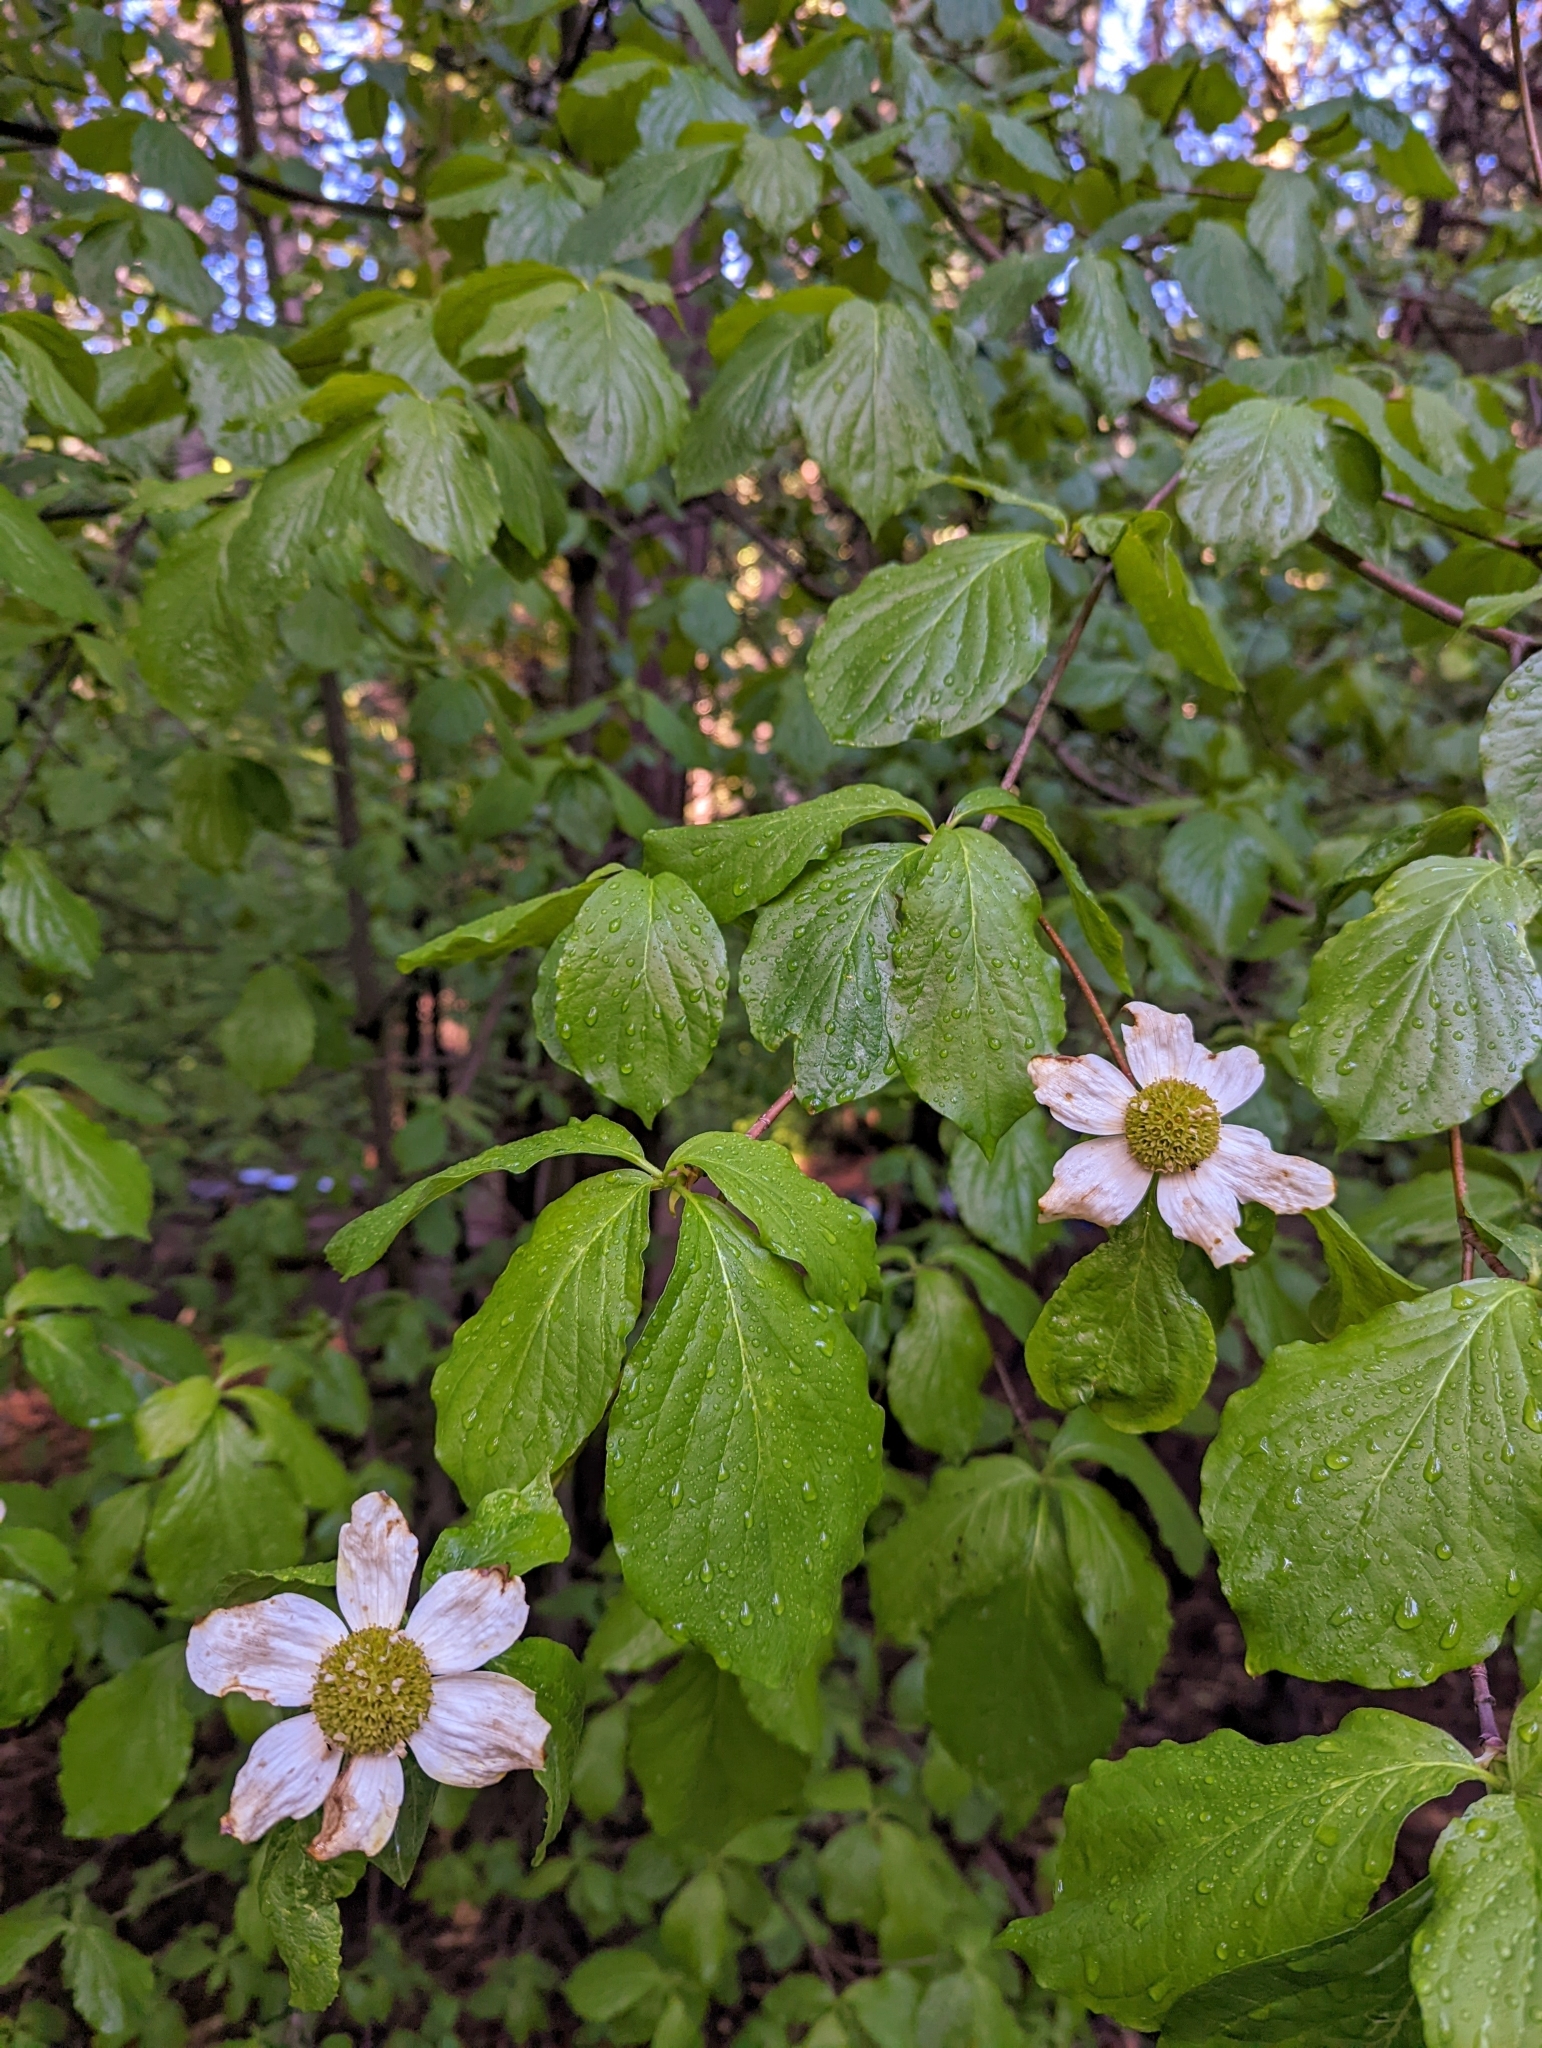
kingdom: Plantae
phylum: Tracheophyta
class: Magnoliopsida
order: Cornales
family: Cornaceae
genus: Cornus
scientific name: Cornus nuttallii
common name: Pacific dogwood
